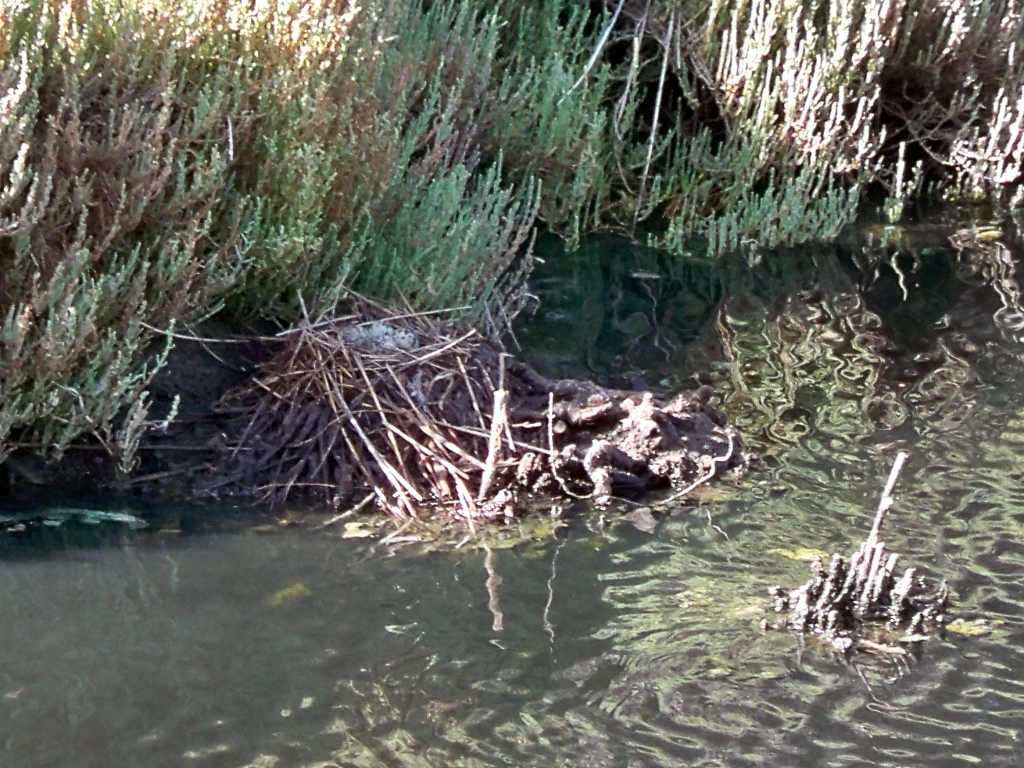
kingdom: Animalia
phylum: Chordata
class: Aves
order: Charadriiformes
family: Recurvirostridae
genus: Himantopus
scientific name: Himantopus himantopus
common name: Black-winged stilt
